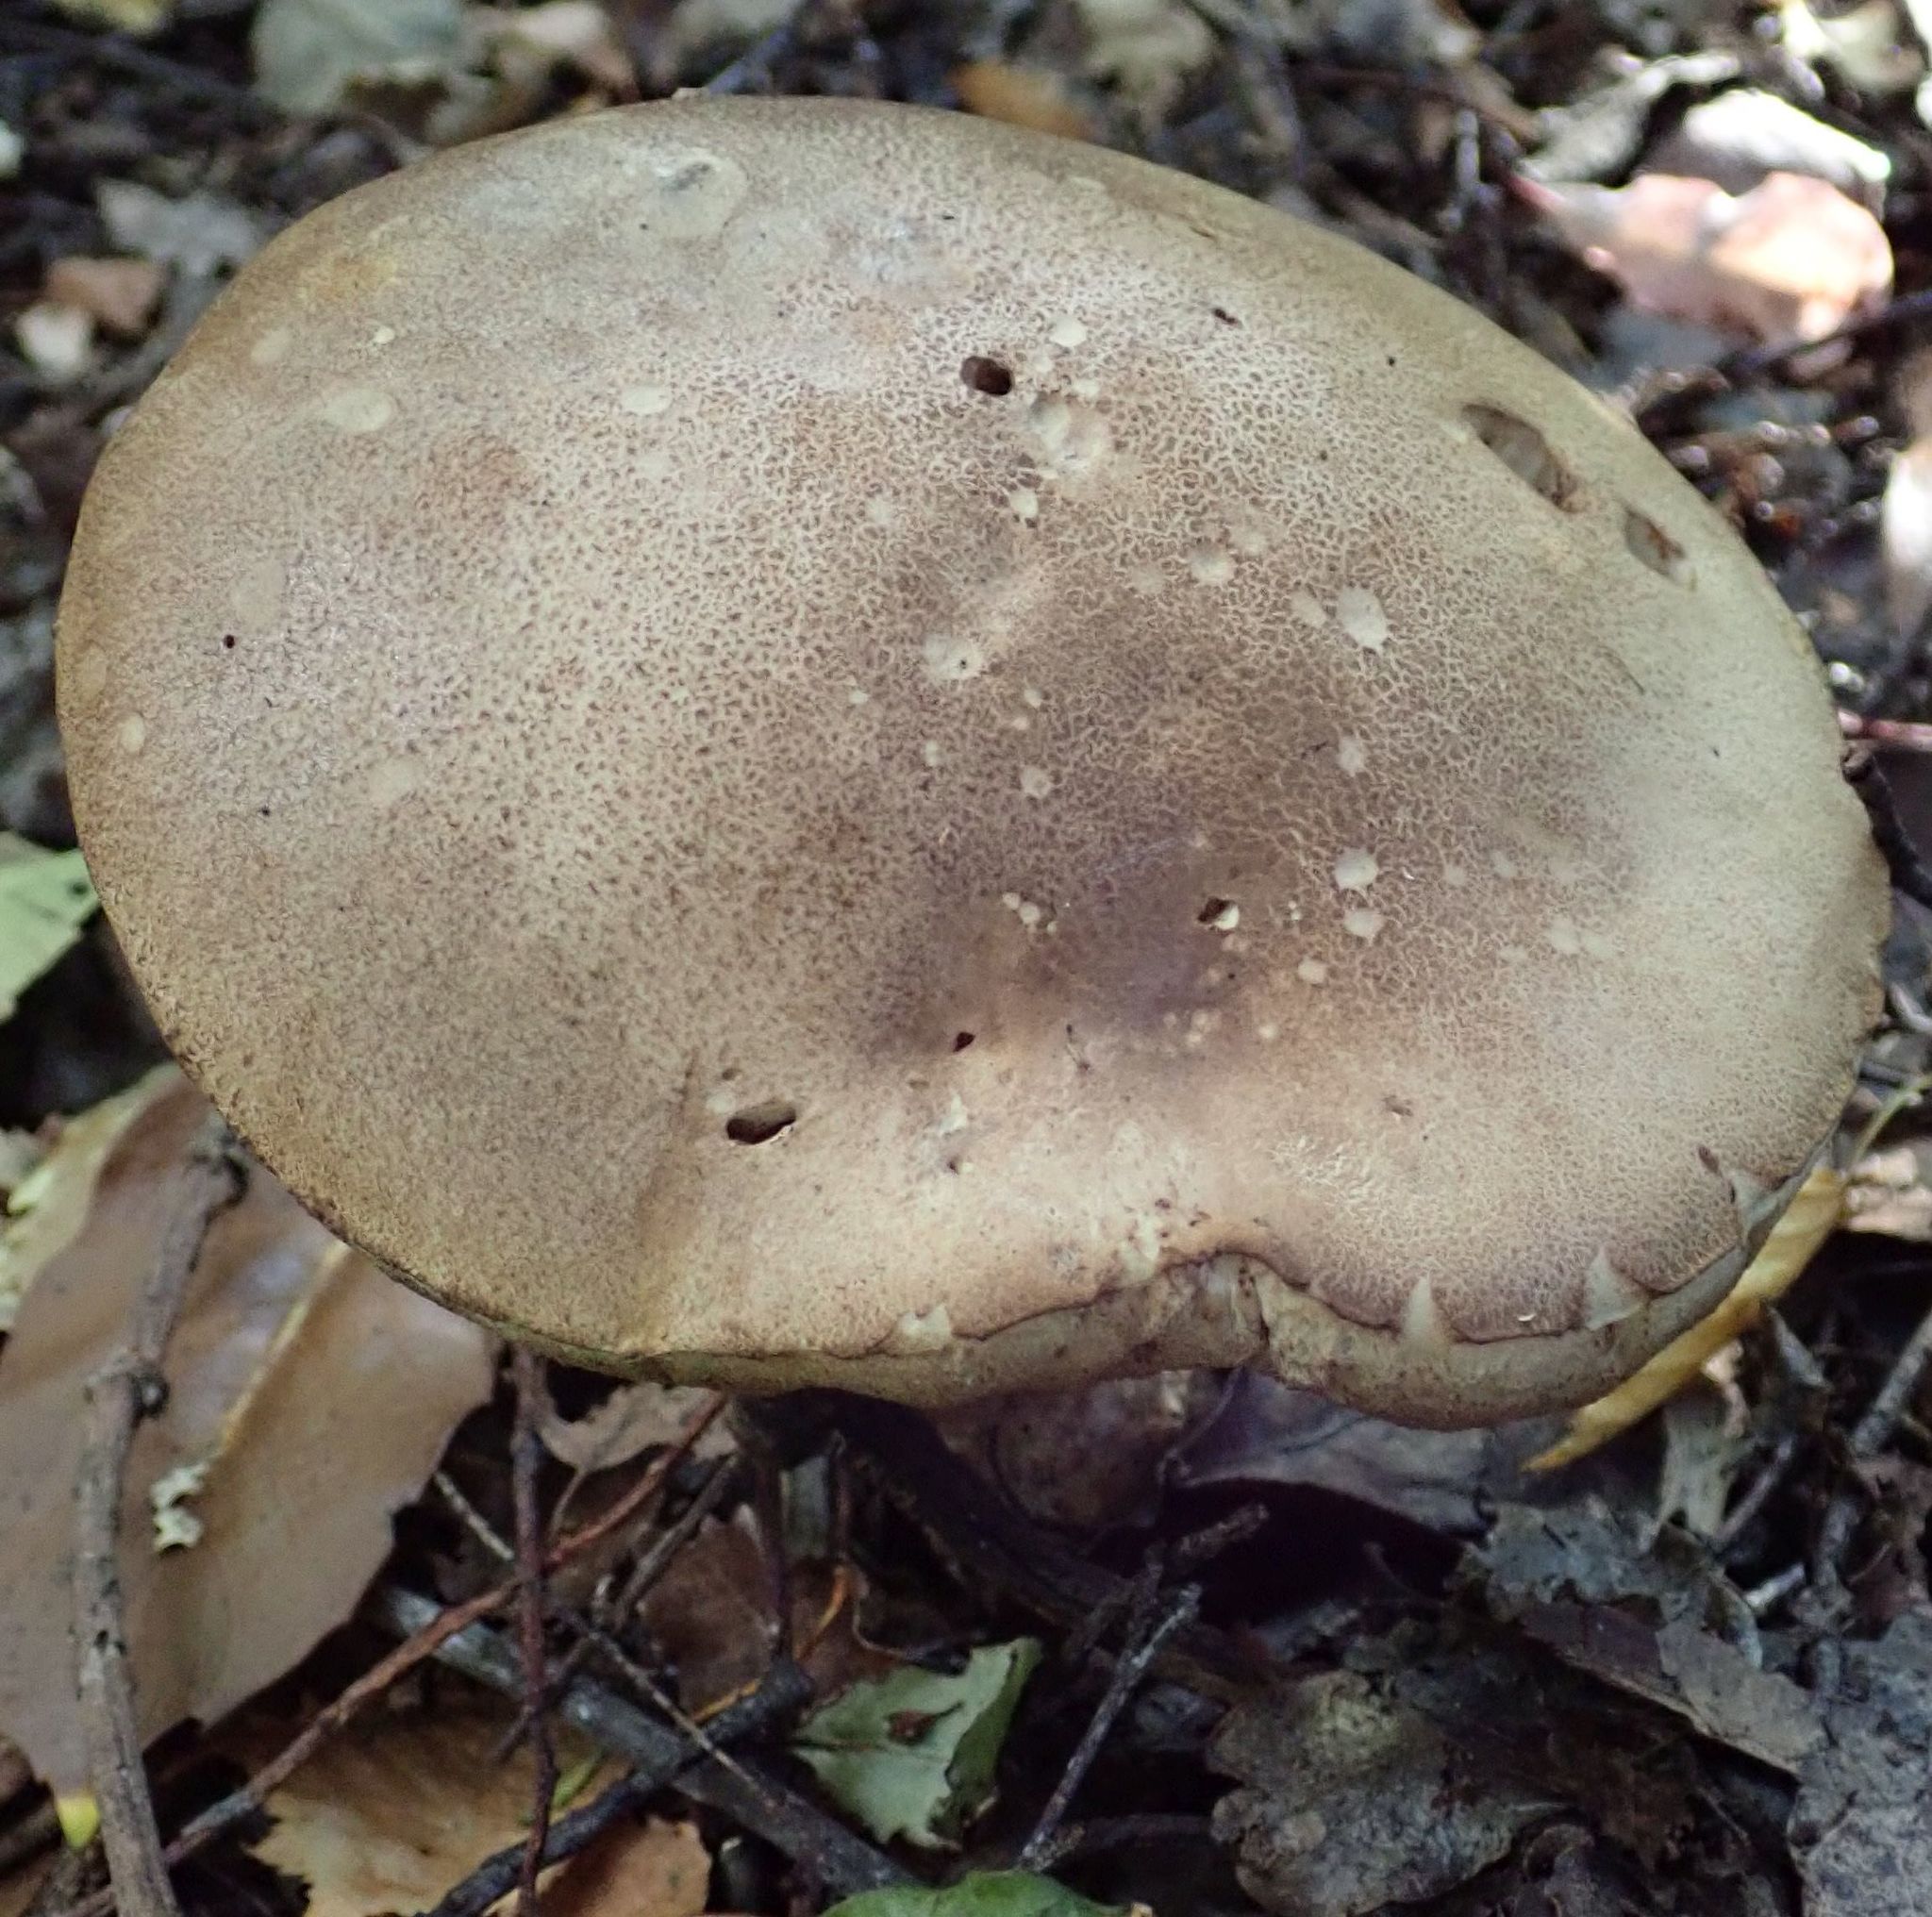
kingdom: Fungi
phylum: Basidiomycota
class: Agaricomycetes
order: Boletales
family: Boletaceae
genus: Leccinum
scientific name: Leccinum scabrum
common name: Blushing bolete
